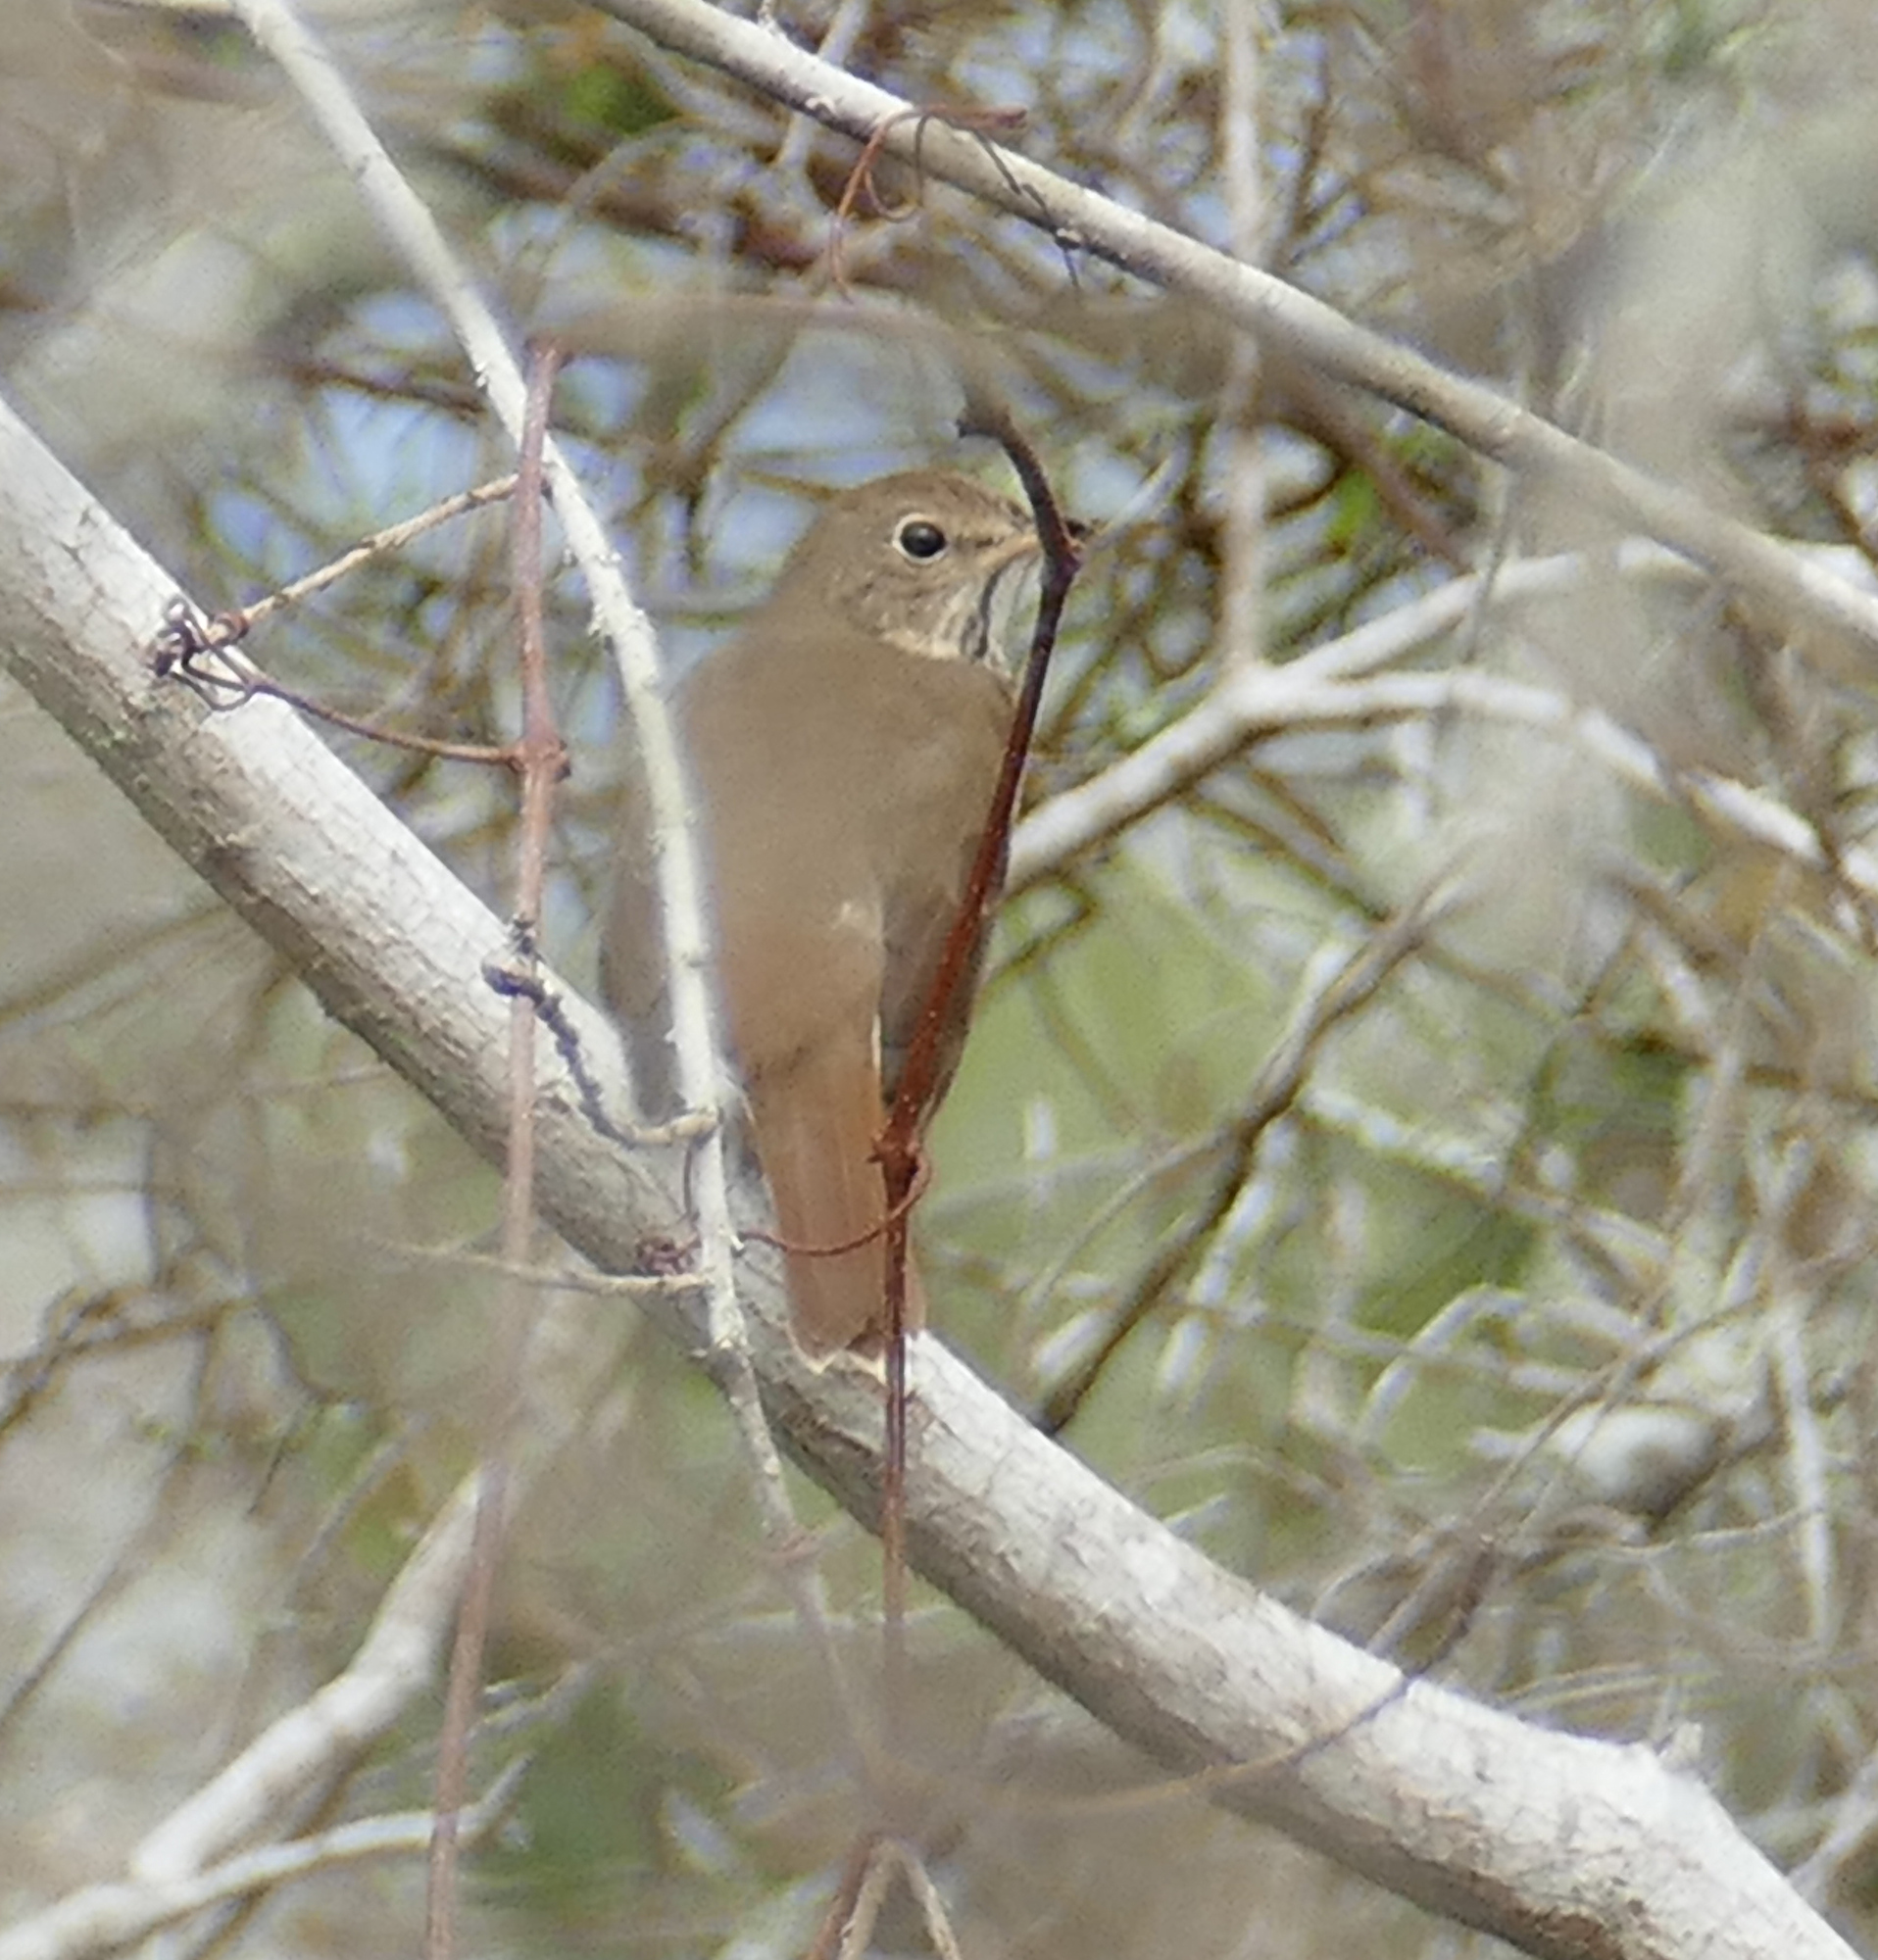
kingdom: Animalia
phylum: Chordata
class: Aves
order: Passeriformes
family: Turdidae
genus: Catharus
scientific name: Catharus guttatus
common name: Hermit thrush
